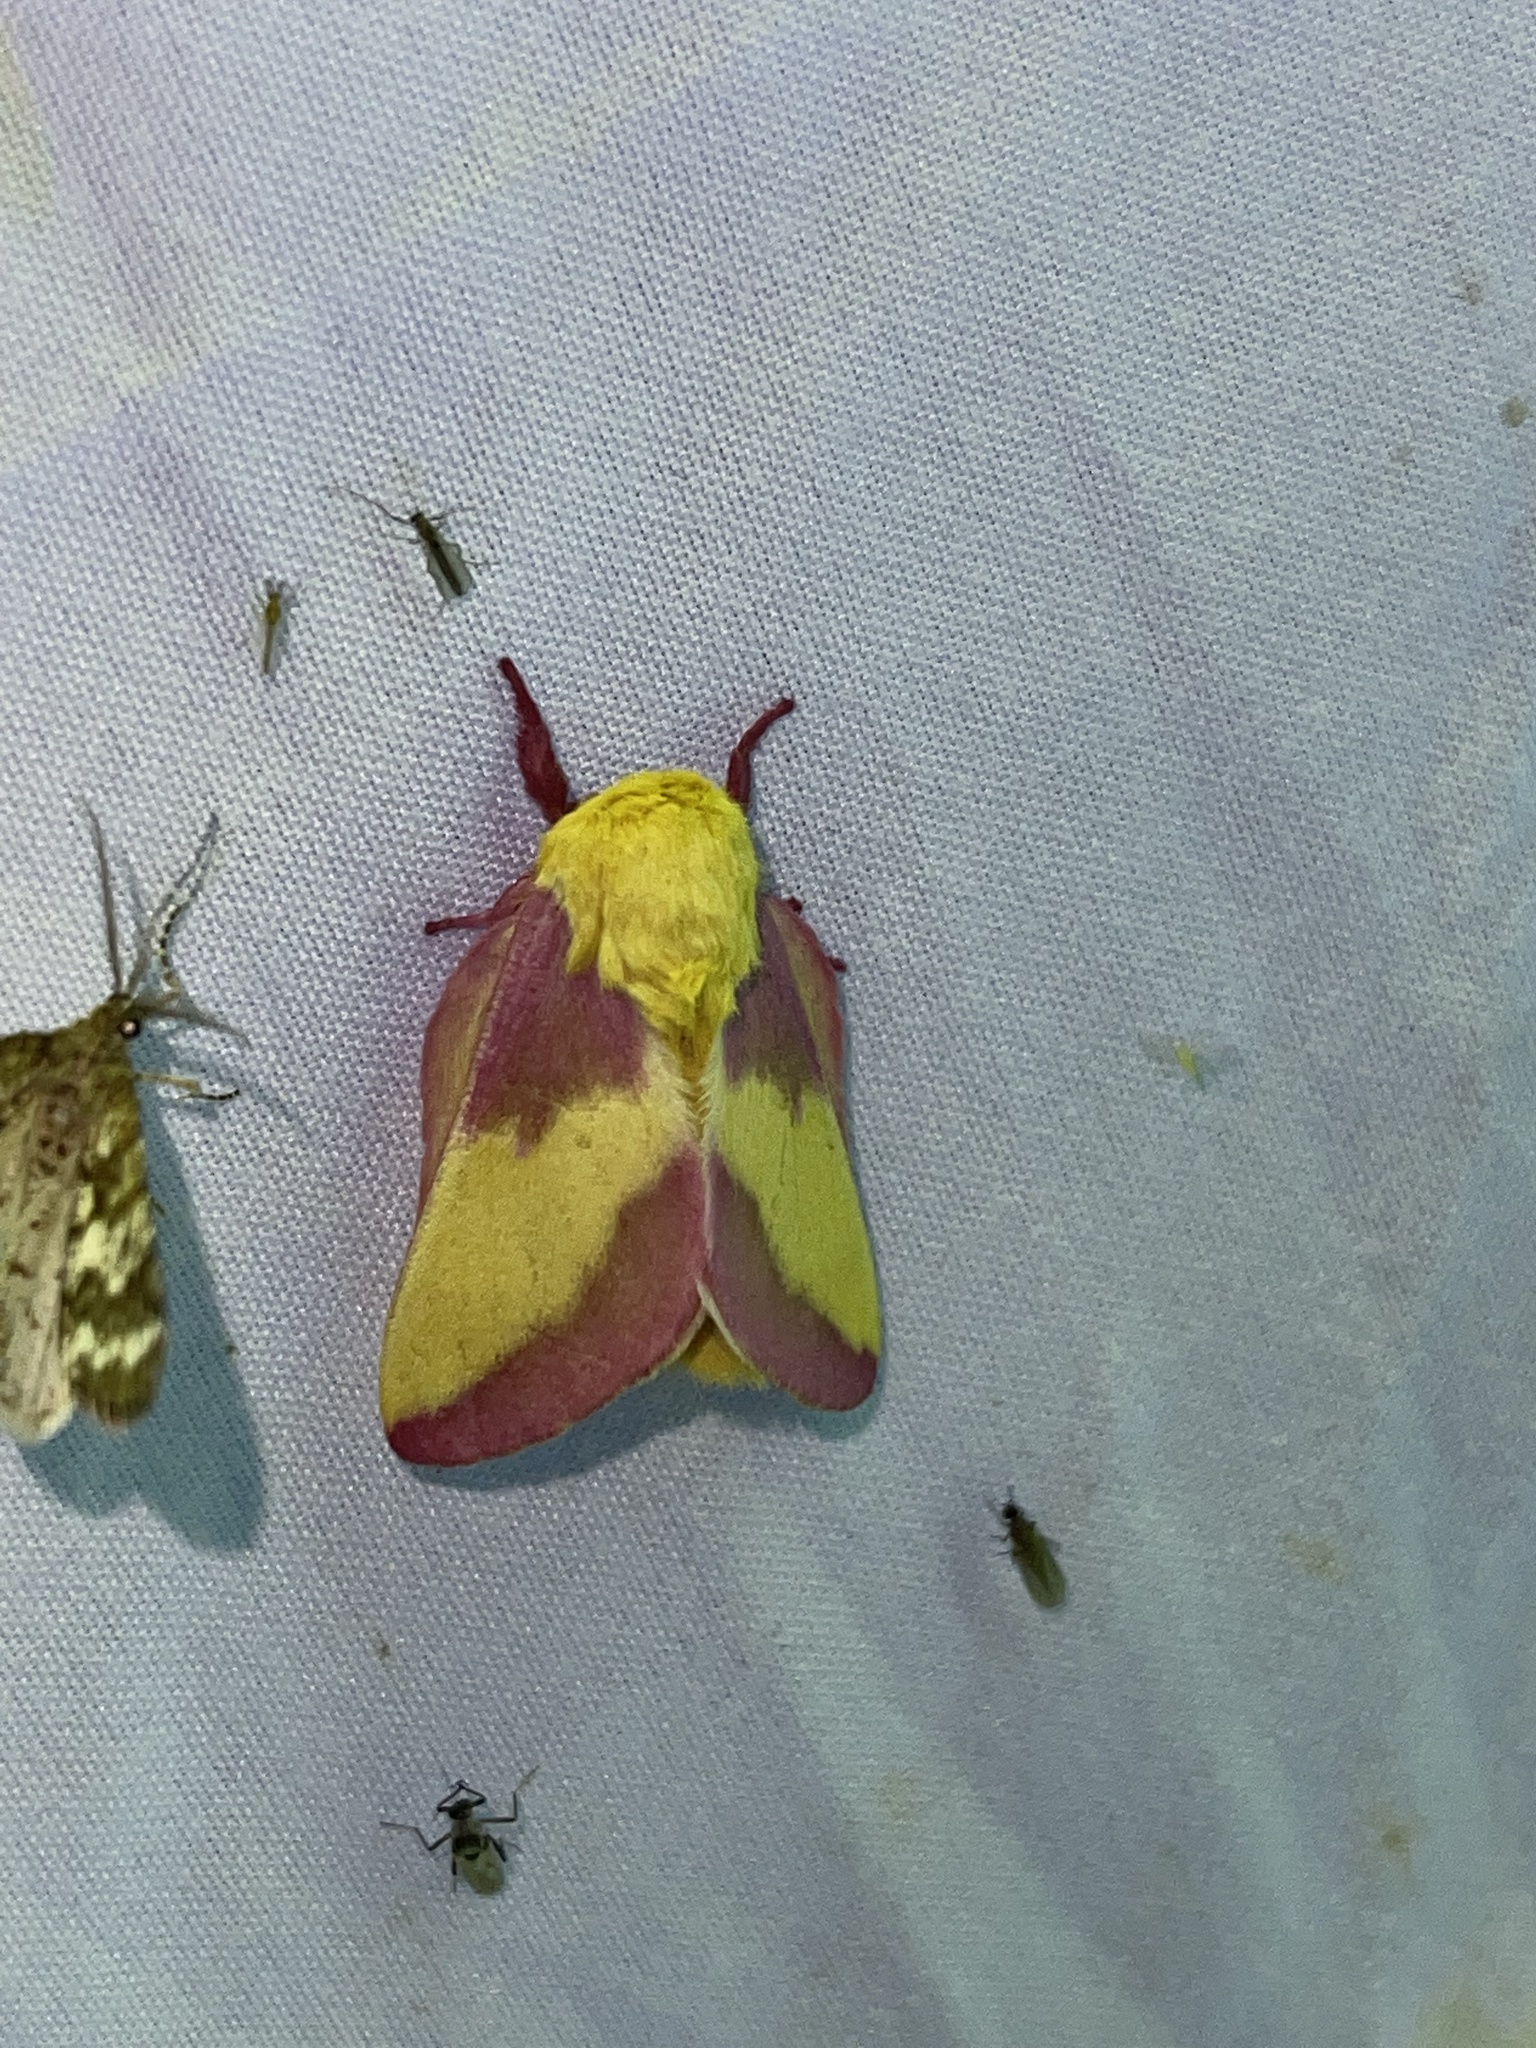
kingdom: Animalia
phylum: Arthropoda
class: Insecta
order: Lepidoptera
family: Saturniidae
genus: Dryocampa
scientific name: Dryocampa rubicunda
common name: Rosy maple moth
